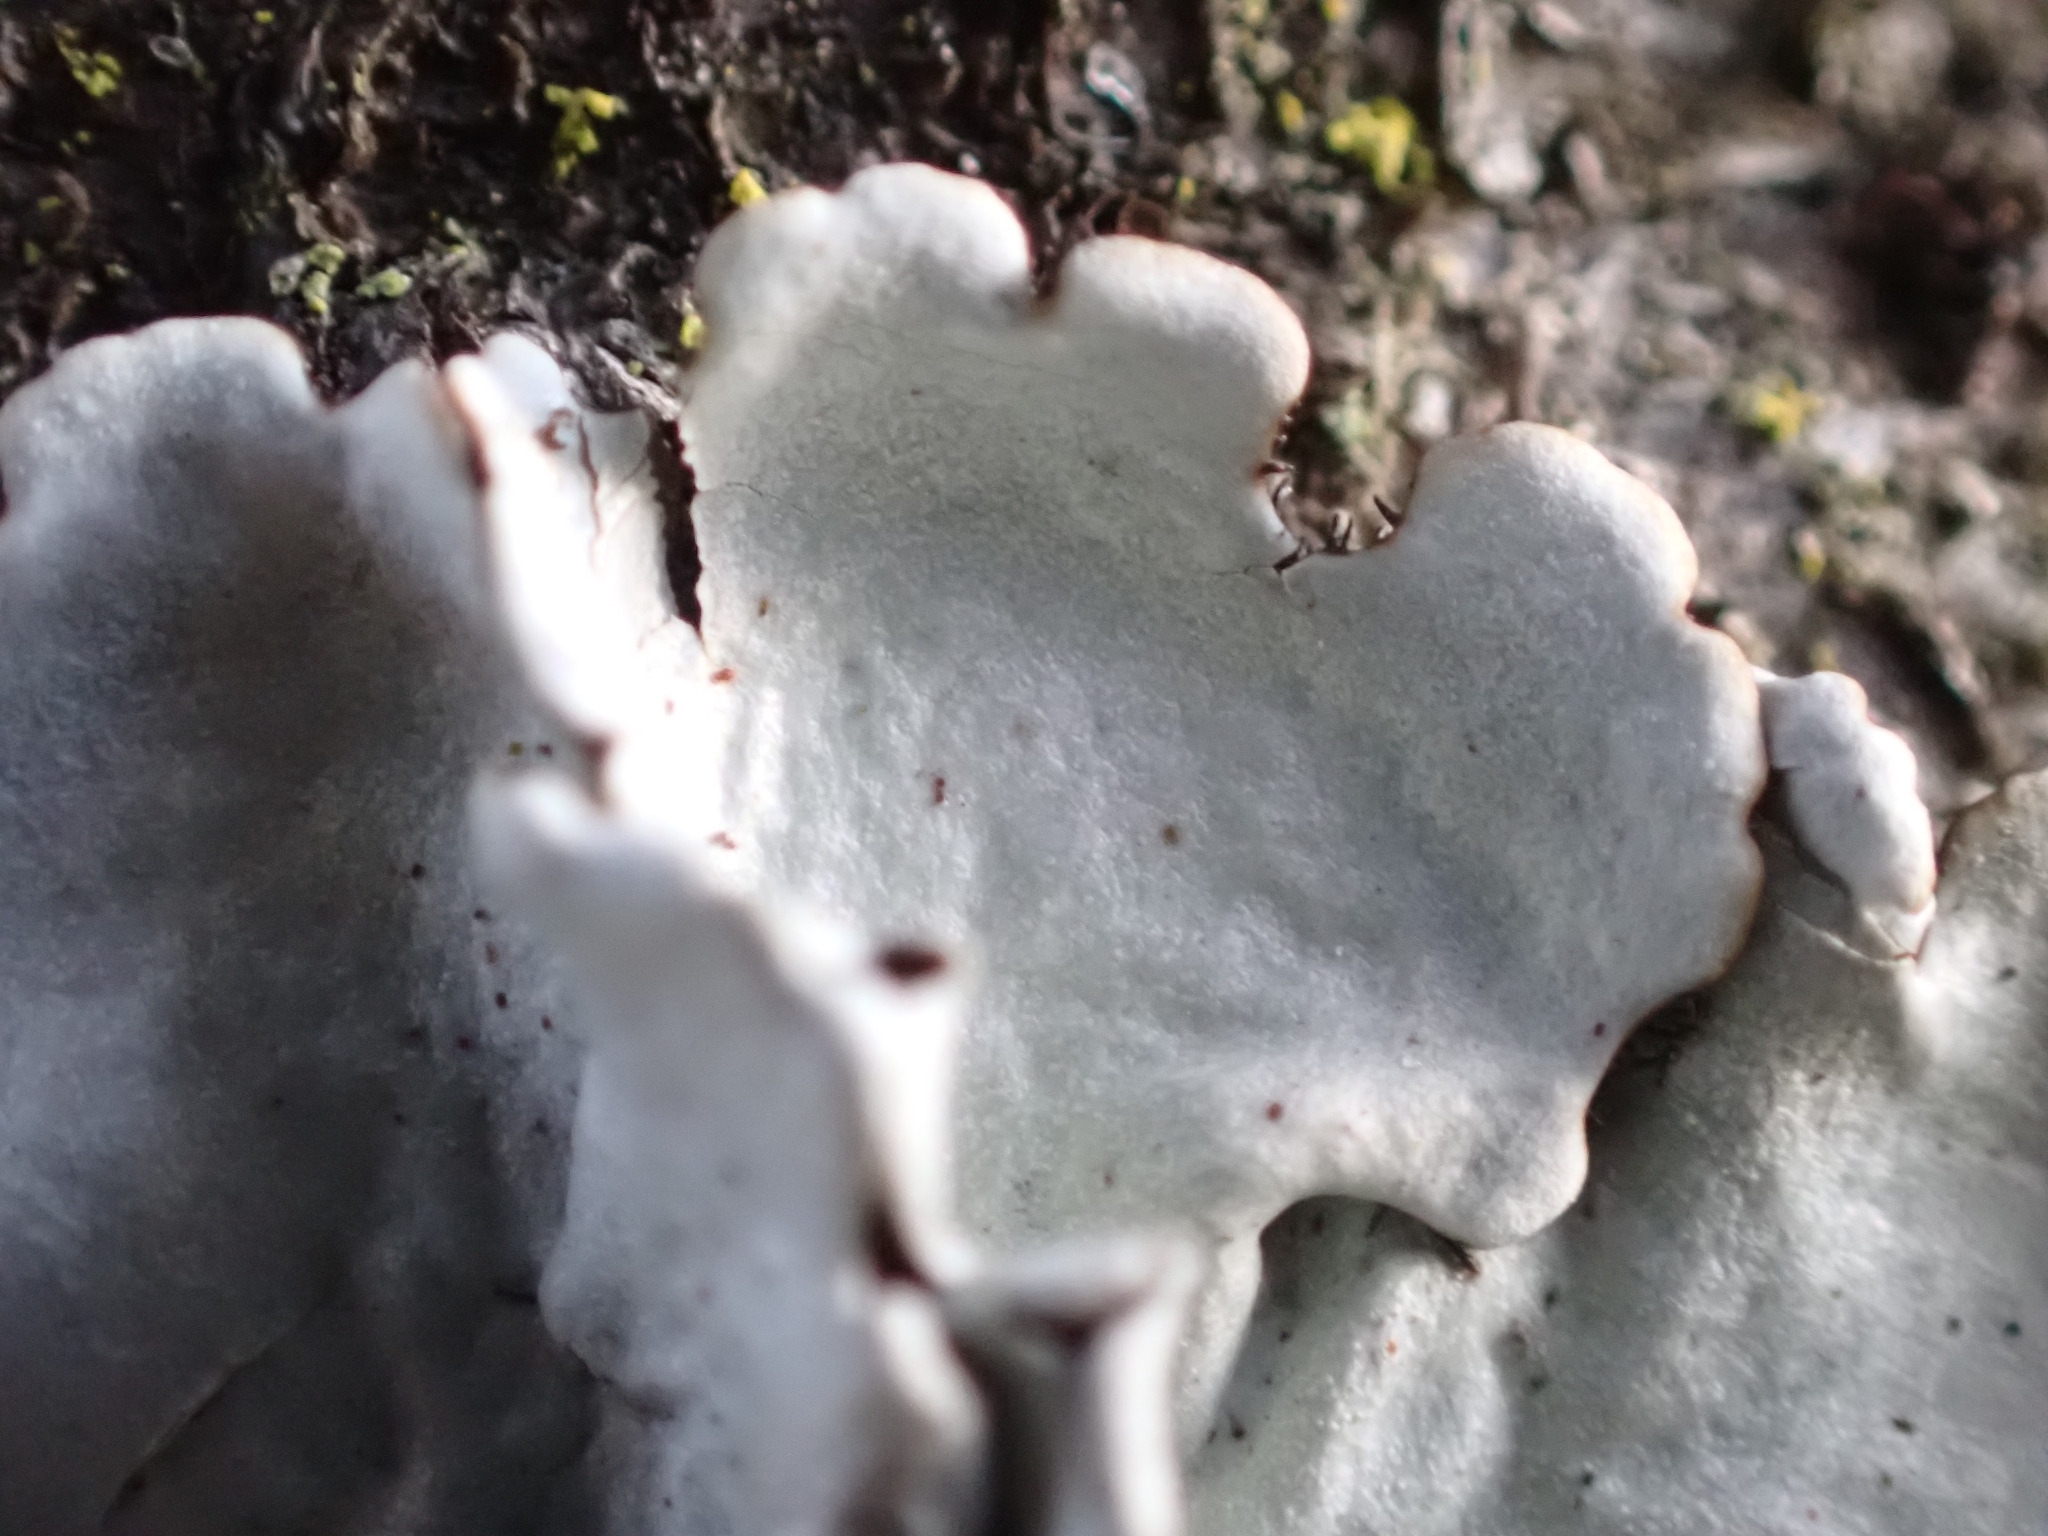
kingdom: Fungi
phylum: Ascomycota
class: Lecanoromycetes
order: Lecanorales
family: Parmeliaceae
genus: Parmelina
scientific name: Parmelina tiliacea
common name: Linden shield lichen
